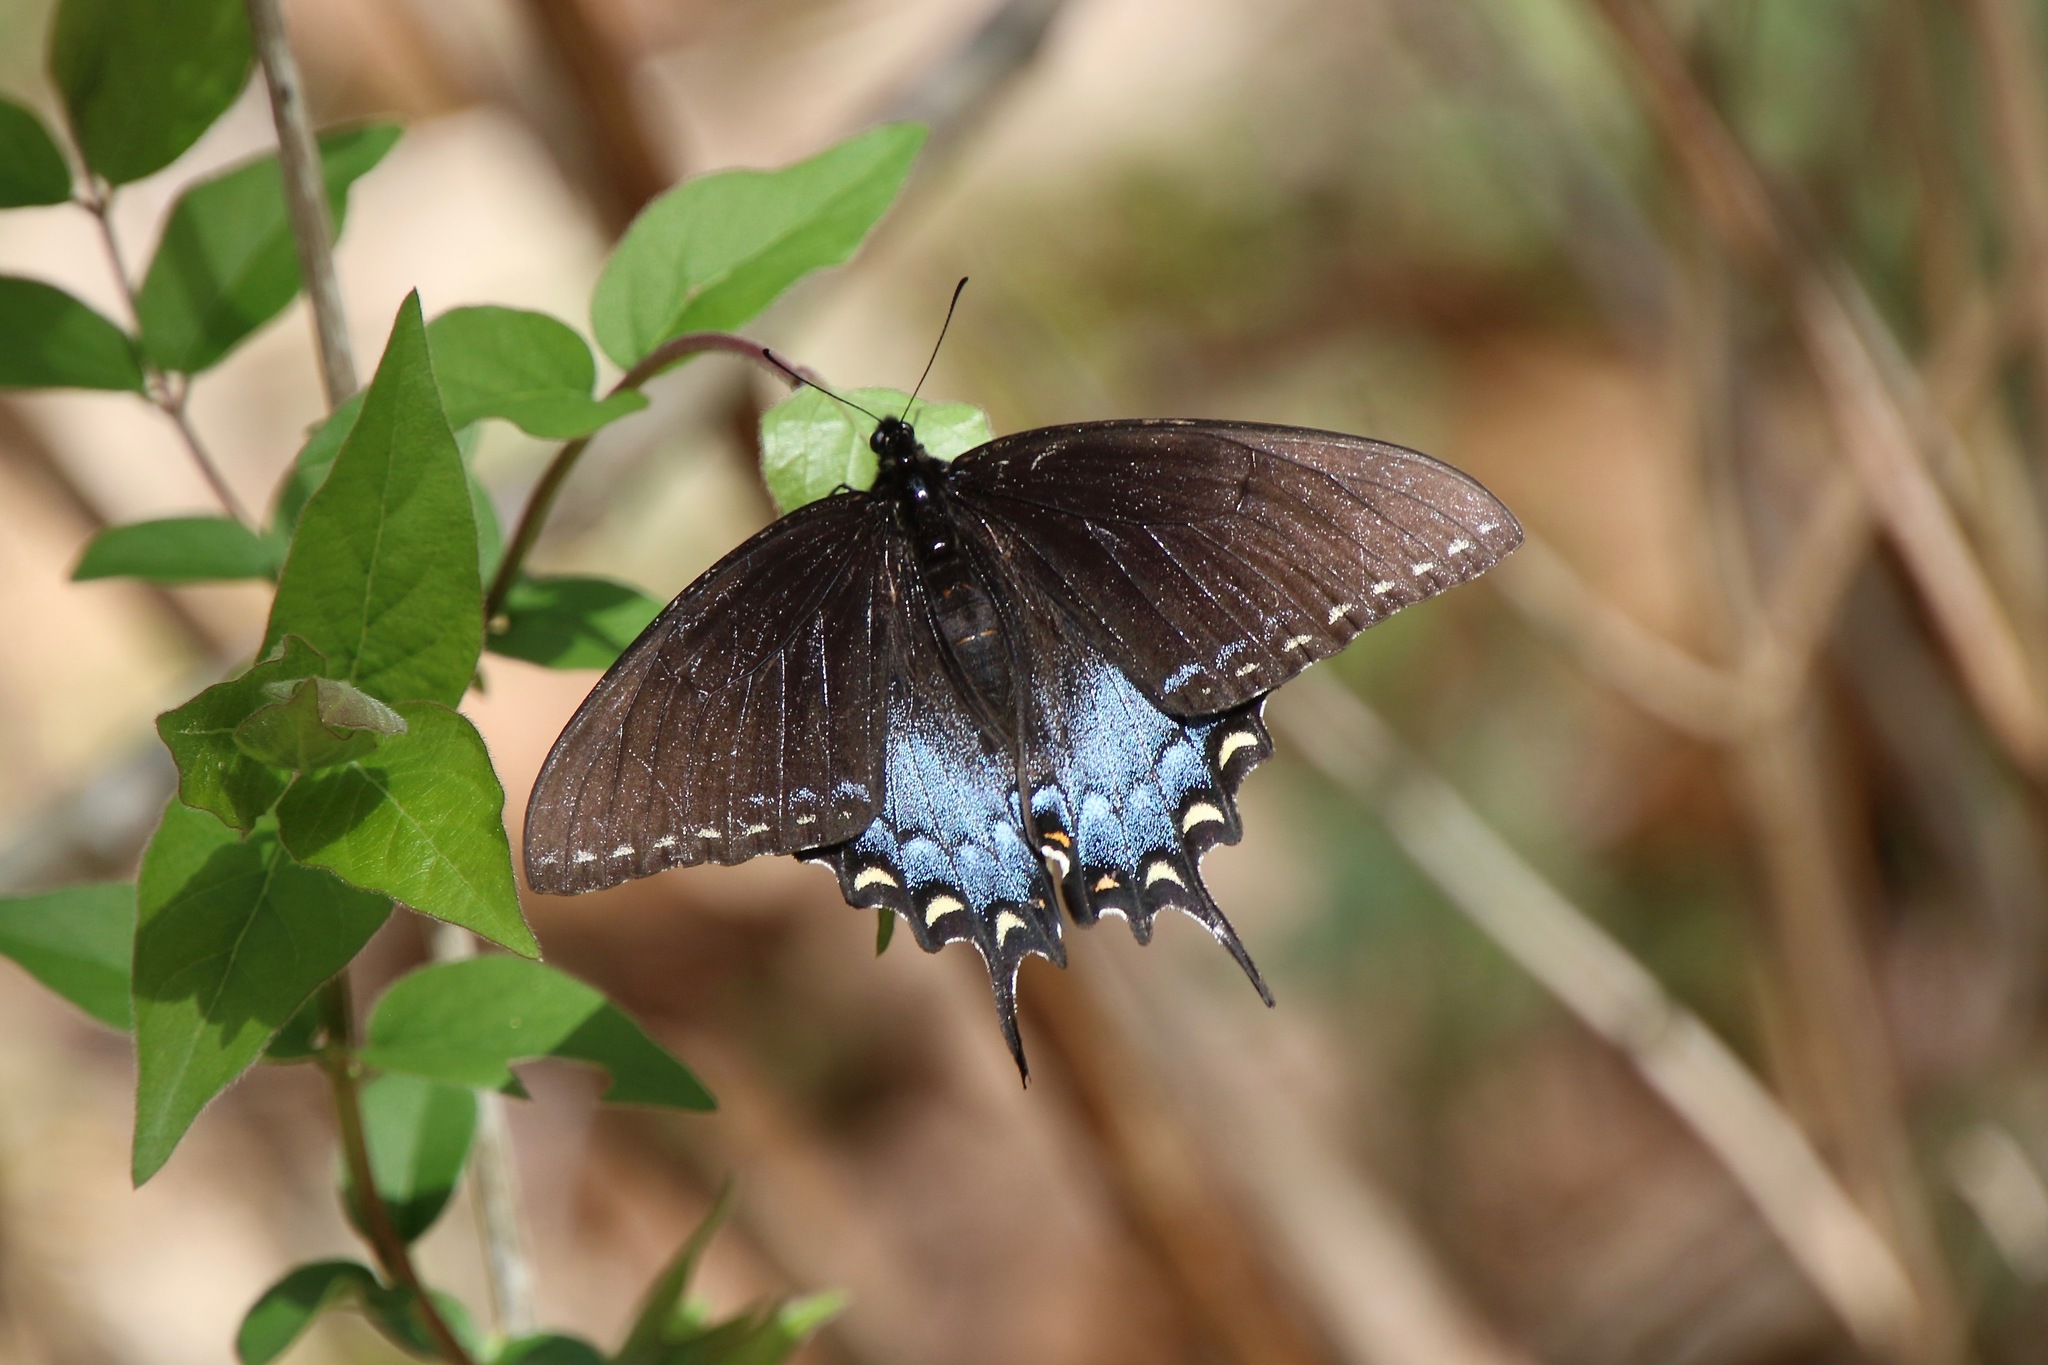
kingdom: Animalia
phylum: Arthropoda
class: Insecta
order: Lepidoptera
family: Papilionidae
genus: Papilio
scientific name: Papilio glaucus
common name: Tiger swallowtail
